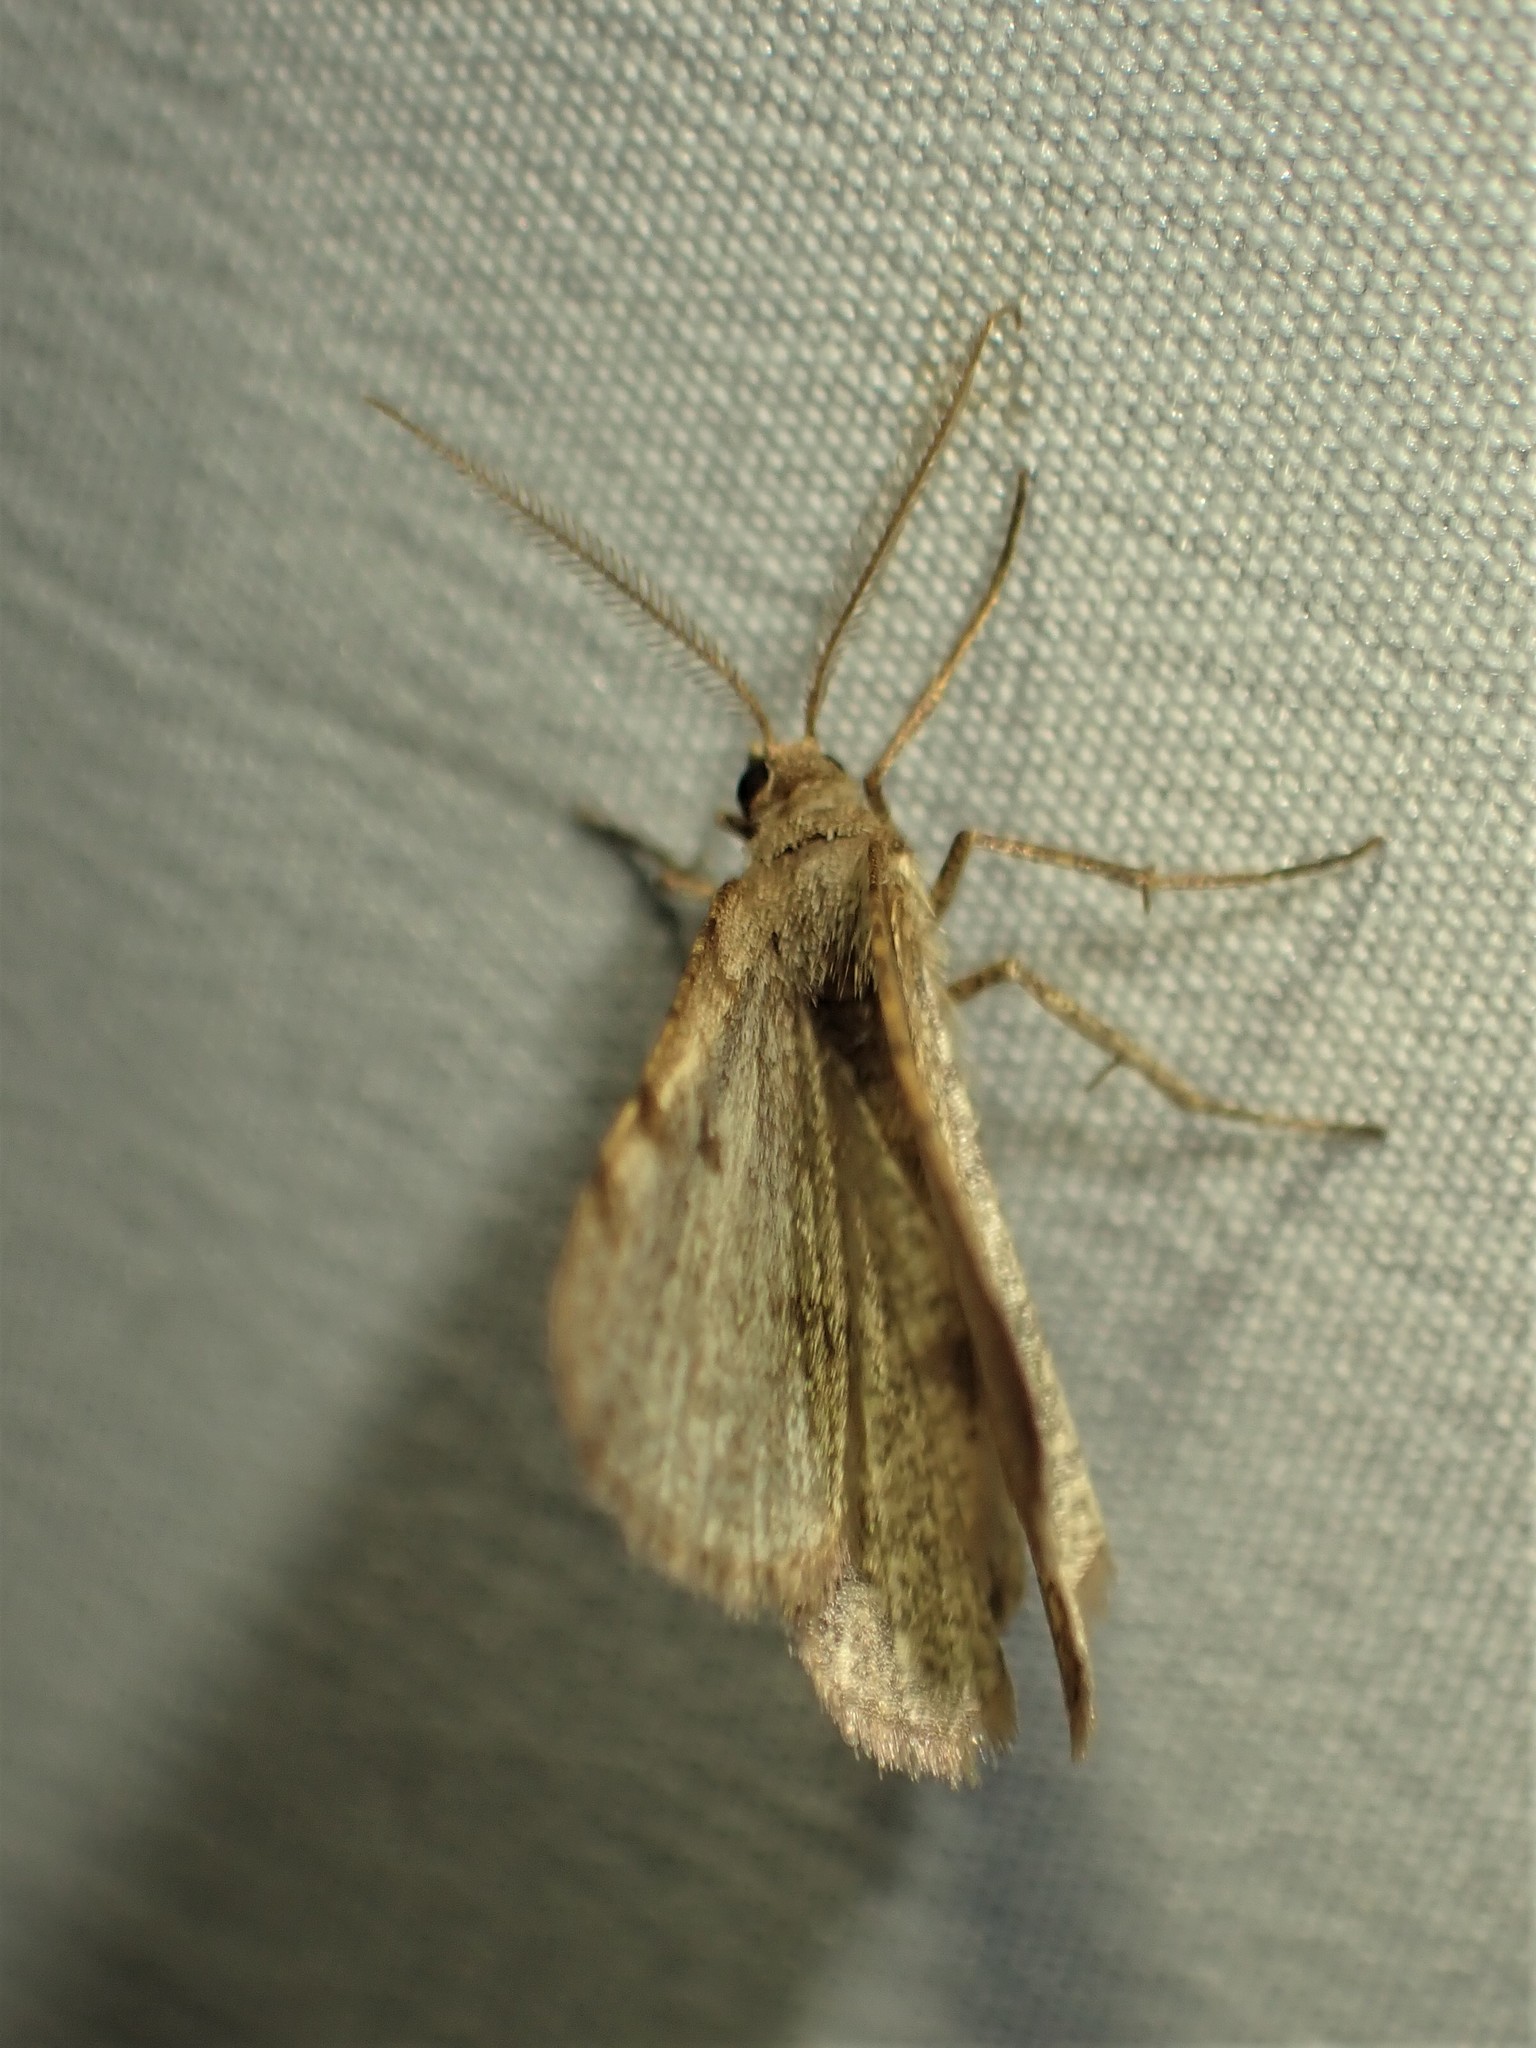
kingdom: Animalia
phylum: Arthropoda
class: Insecta
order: Lepidoptera
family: Geometridae
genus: Macaria
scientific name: Macaria evagaria
